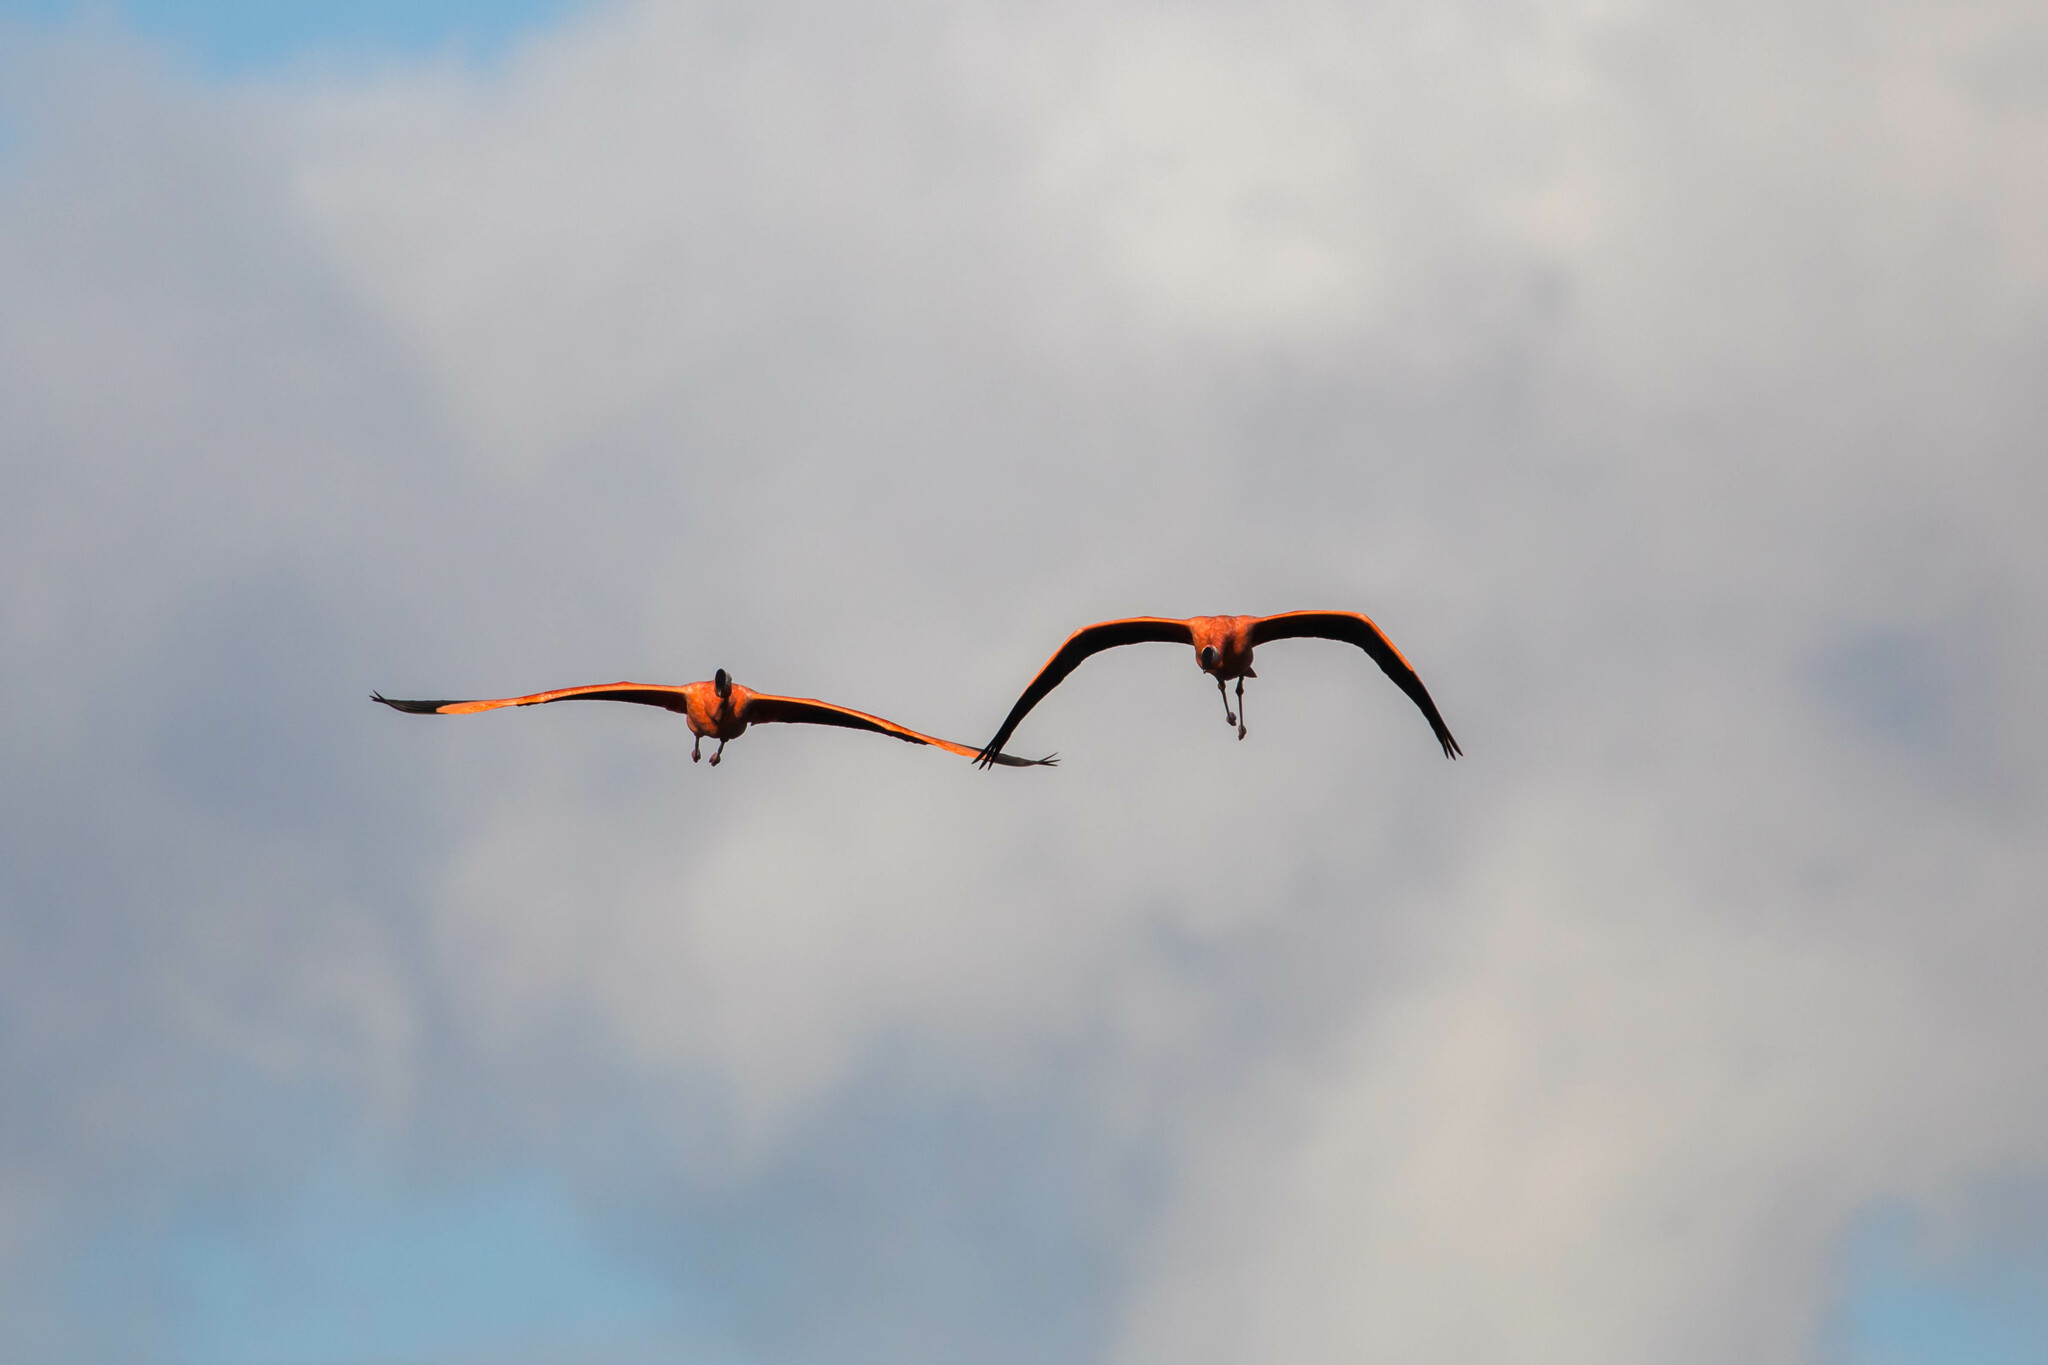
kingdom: Animalia
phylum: Chordata
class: Aves
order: Phoenicopteriformes
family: Phoenicopteridae
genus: Phoenicopterus
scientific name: Phoenicopterus ruber
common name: American flamingo
